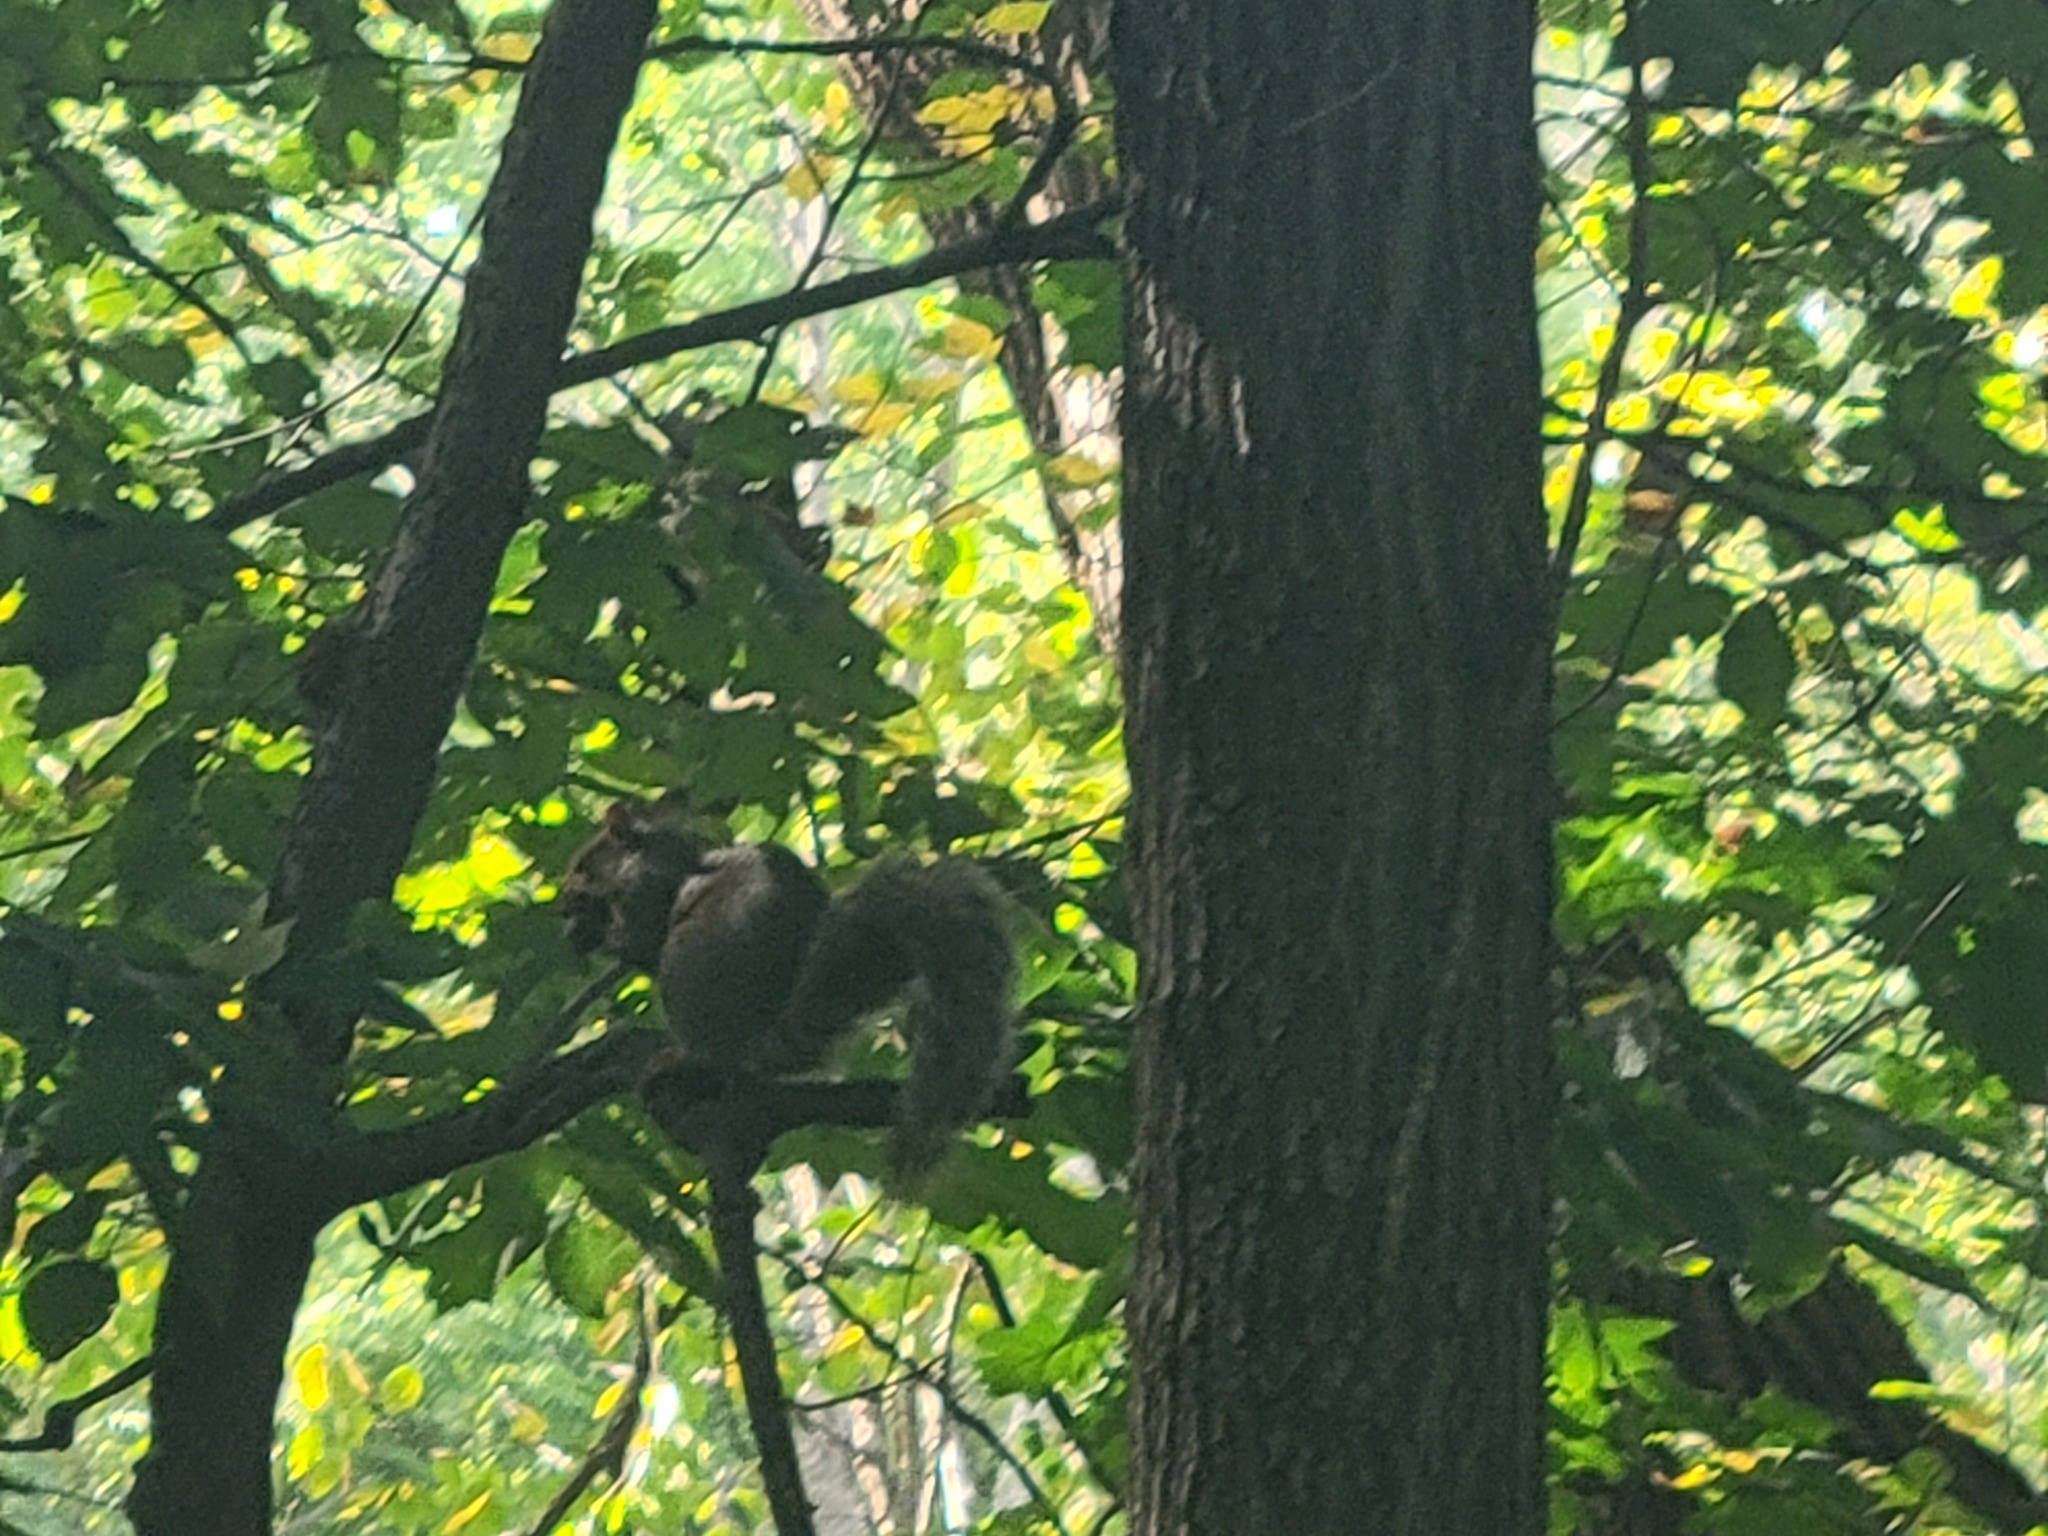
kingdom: Animalia
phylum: Chordata
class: Mammalia
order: Rodentia
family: Sciuridae
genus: Sciurus
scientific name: Sciurus carolinensis
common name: Eastern gray squirrel
